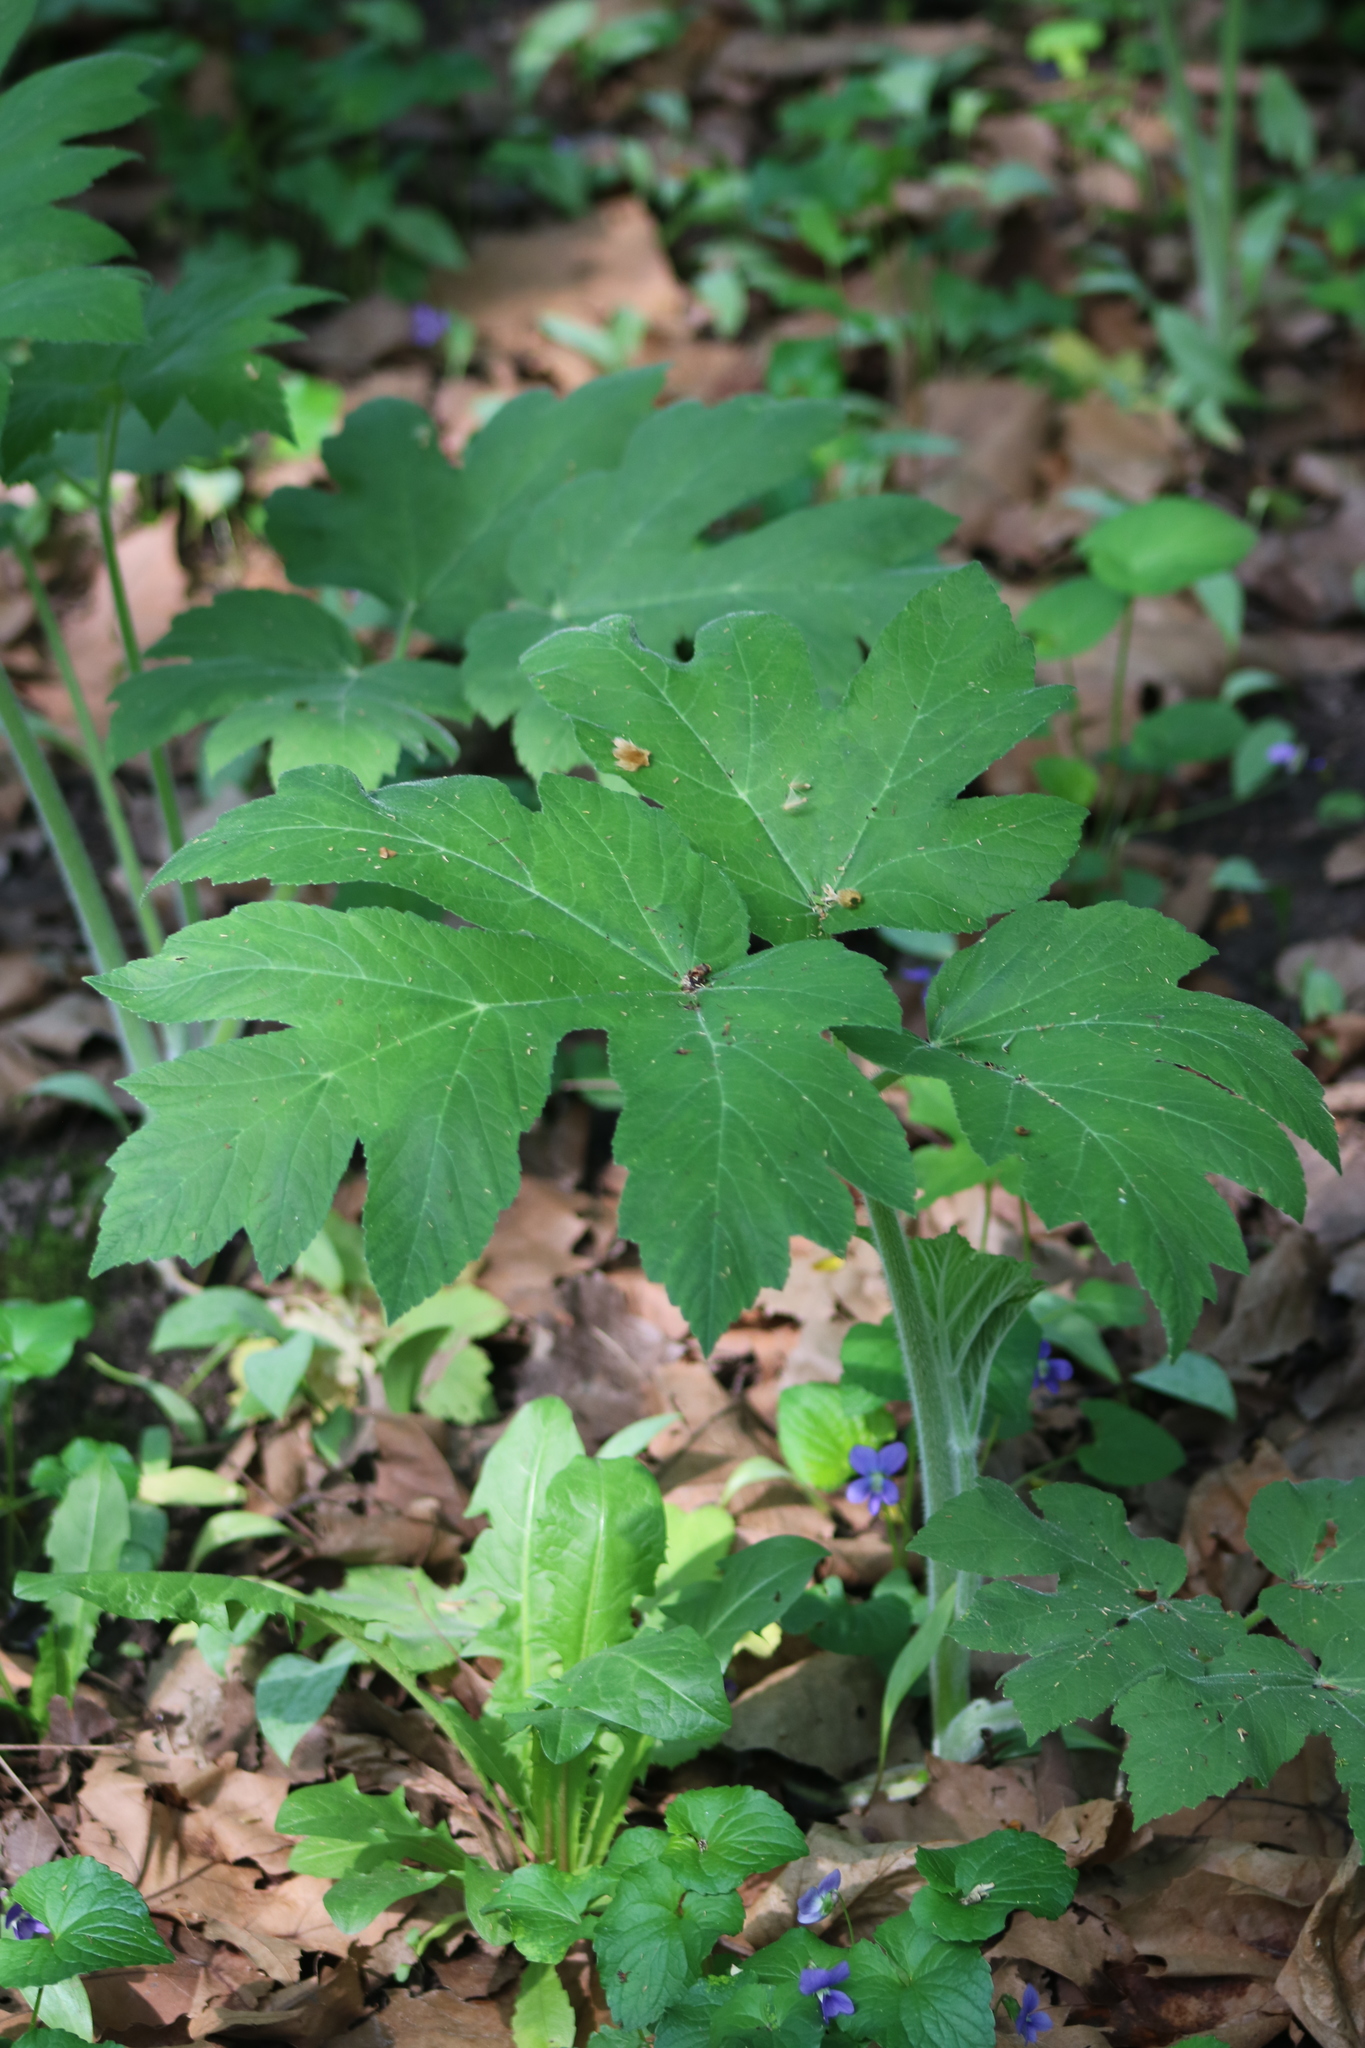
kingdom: Plantae
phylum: Tracheophyta
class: Magnoliopsida
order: Apiales
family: Apiaceae
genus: Heracleum
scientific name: Heracleum maximum
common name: American cow parsnip
